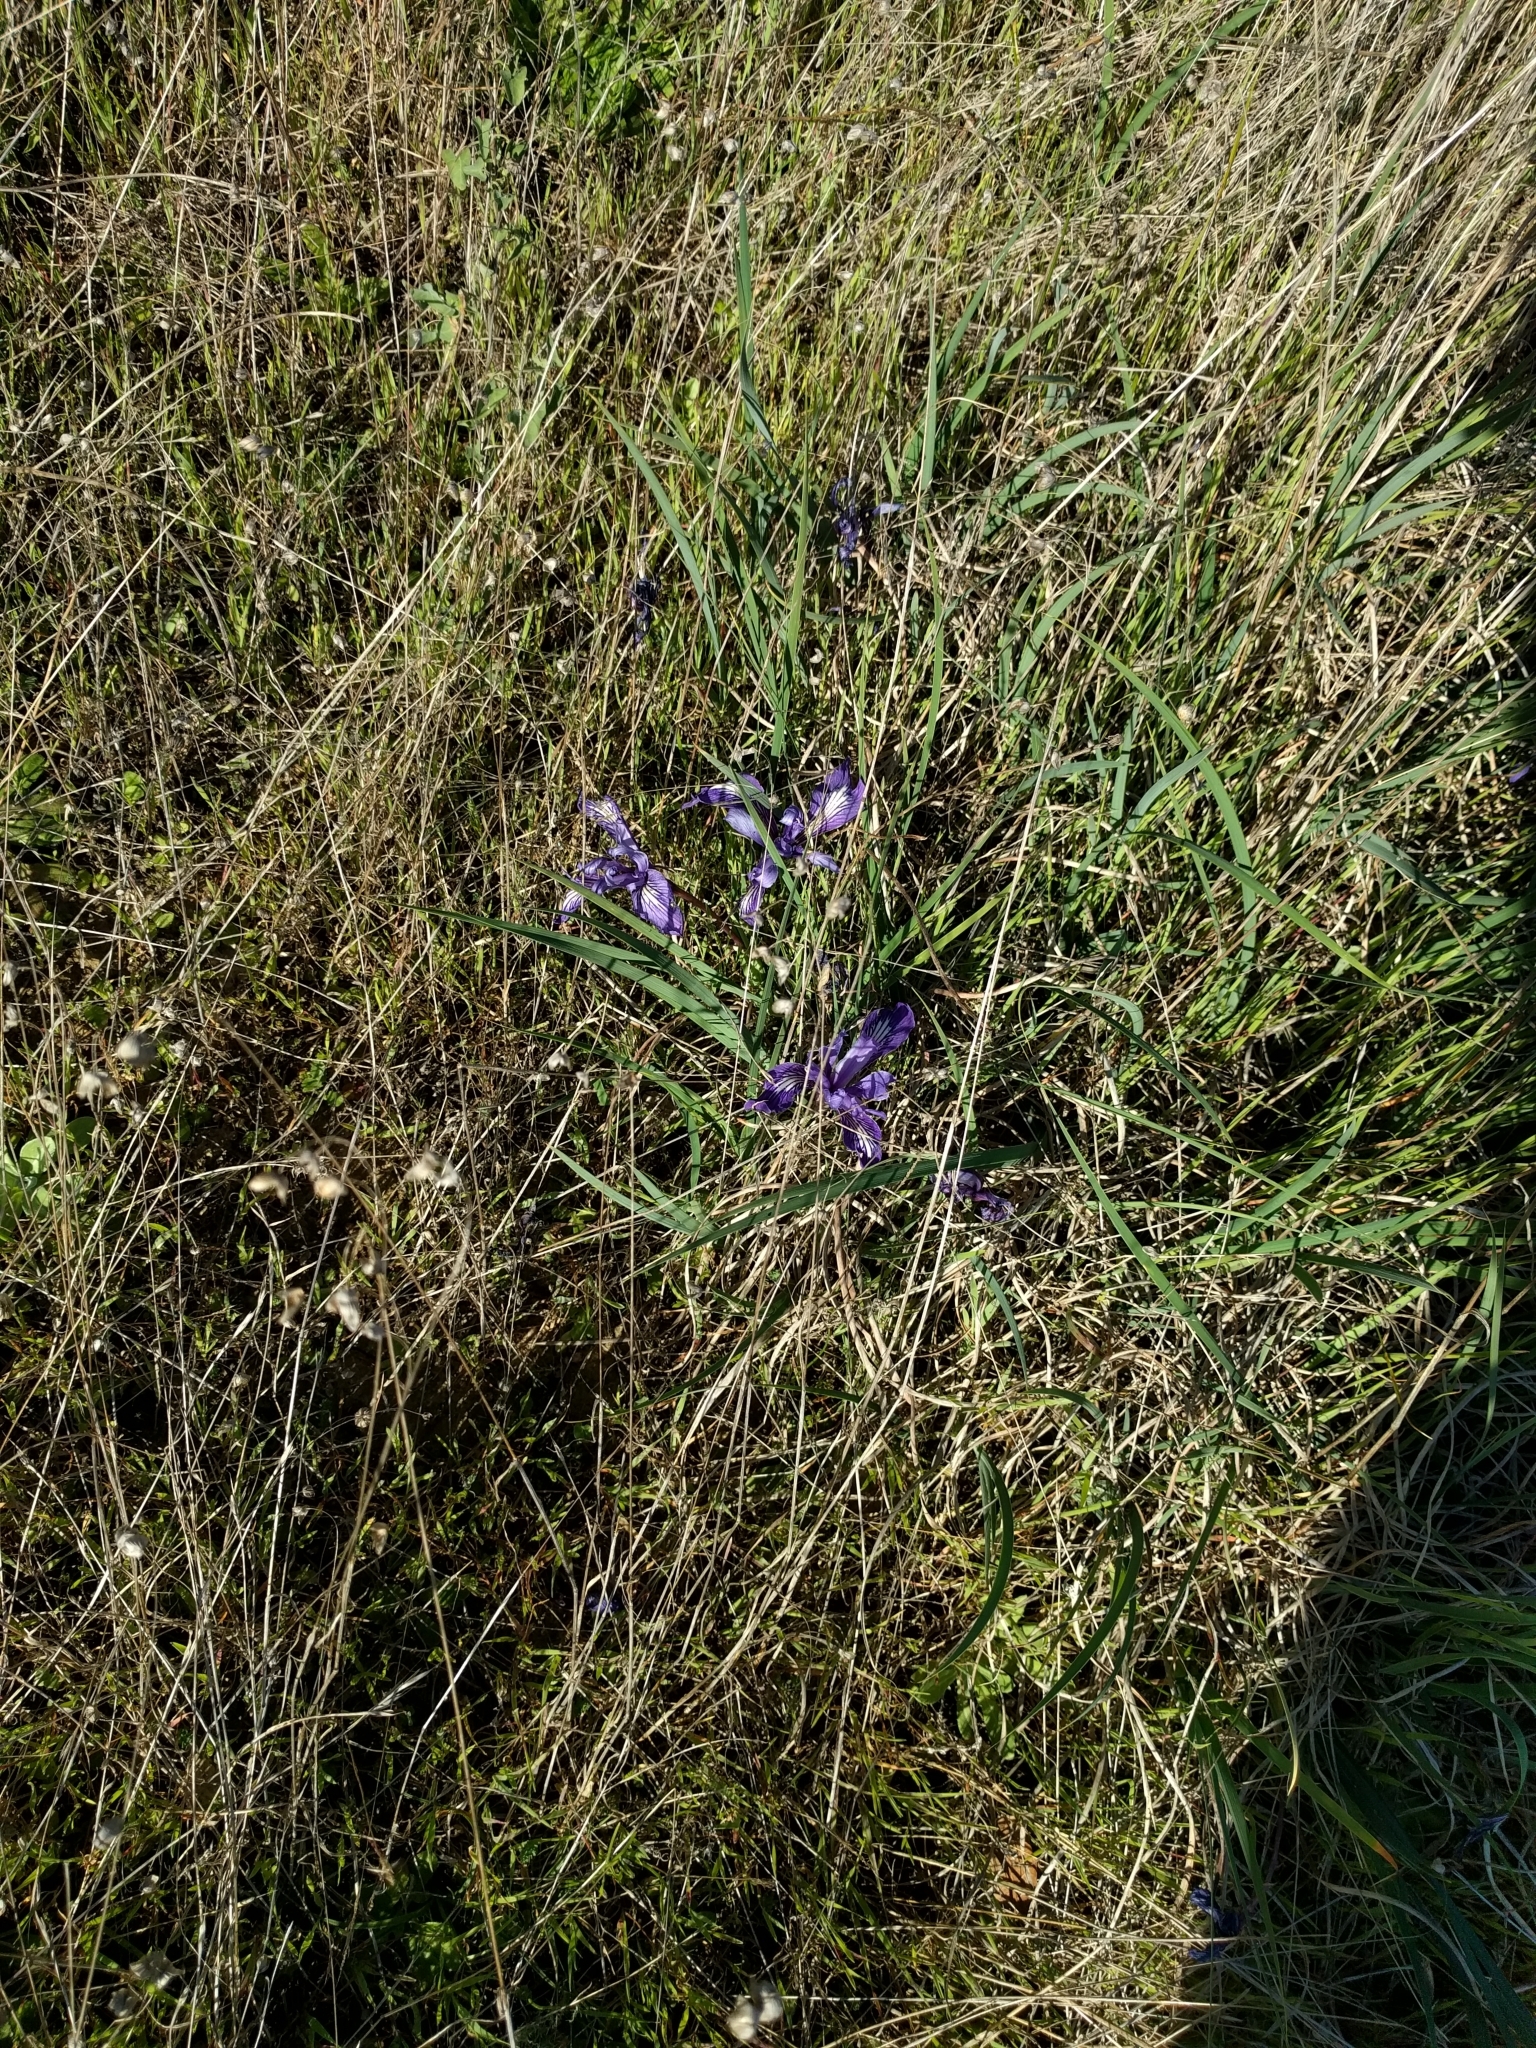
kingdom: Plantae
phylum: Tracheophyta
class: Liliopsida
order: Asparagales
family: Iridaceae
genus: Iris
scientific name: Iris macrosiphon
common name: Ground iris
